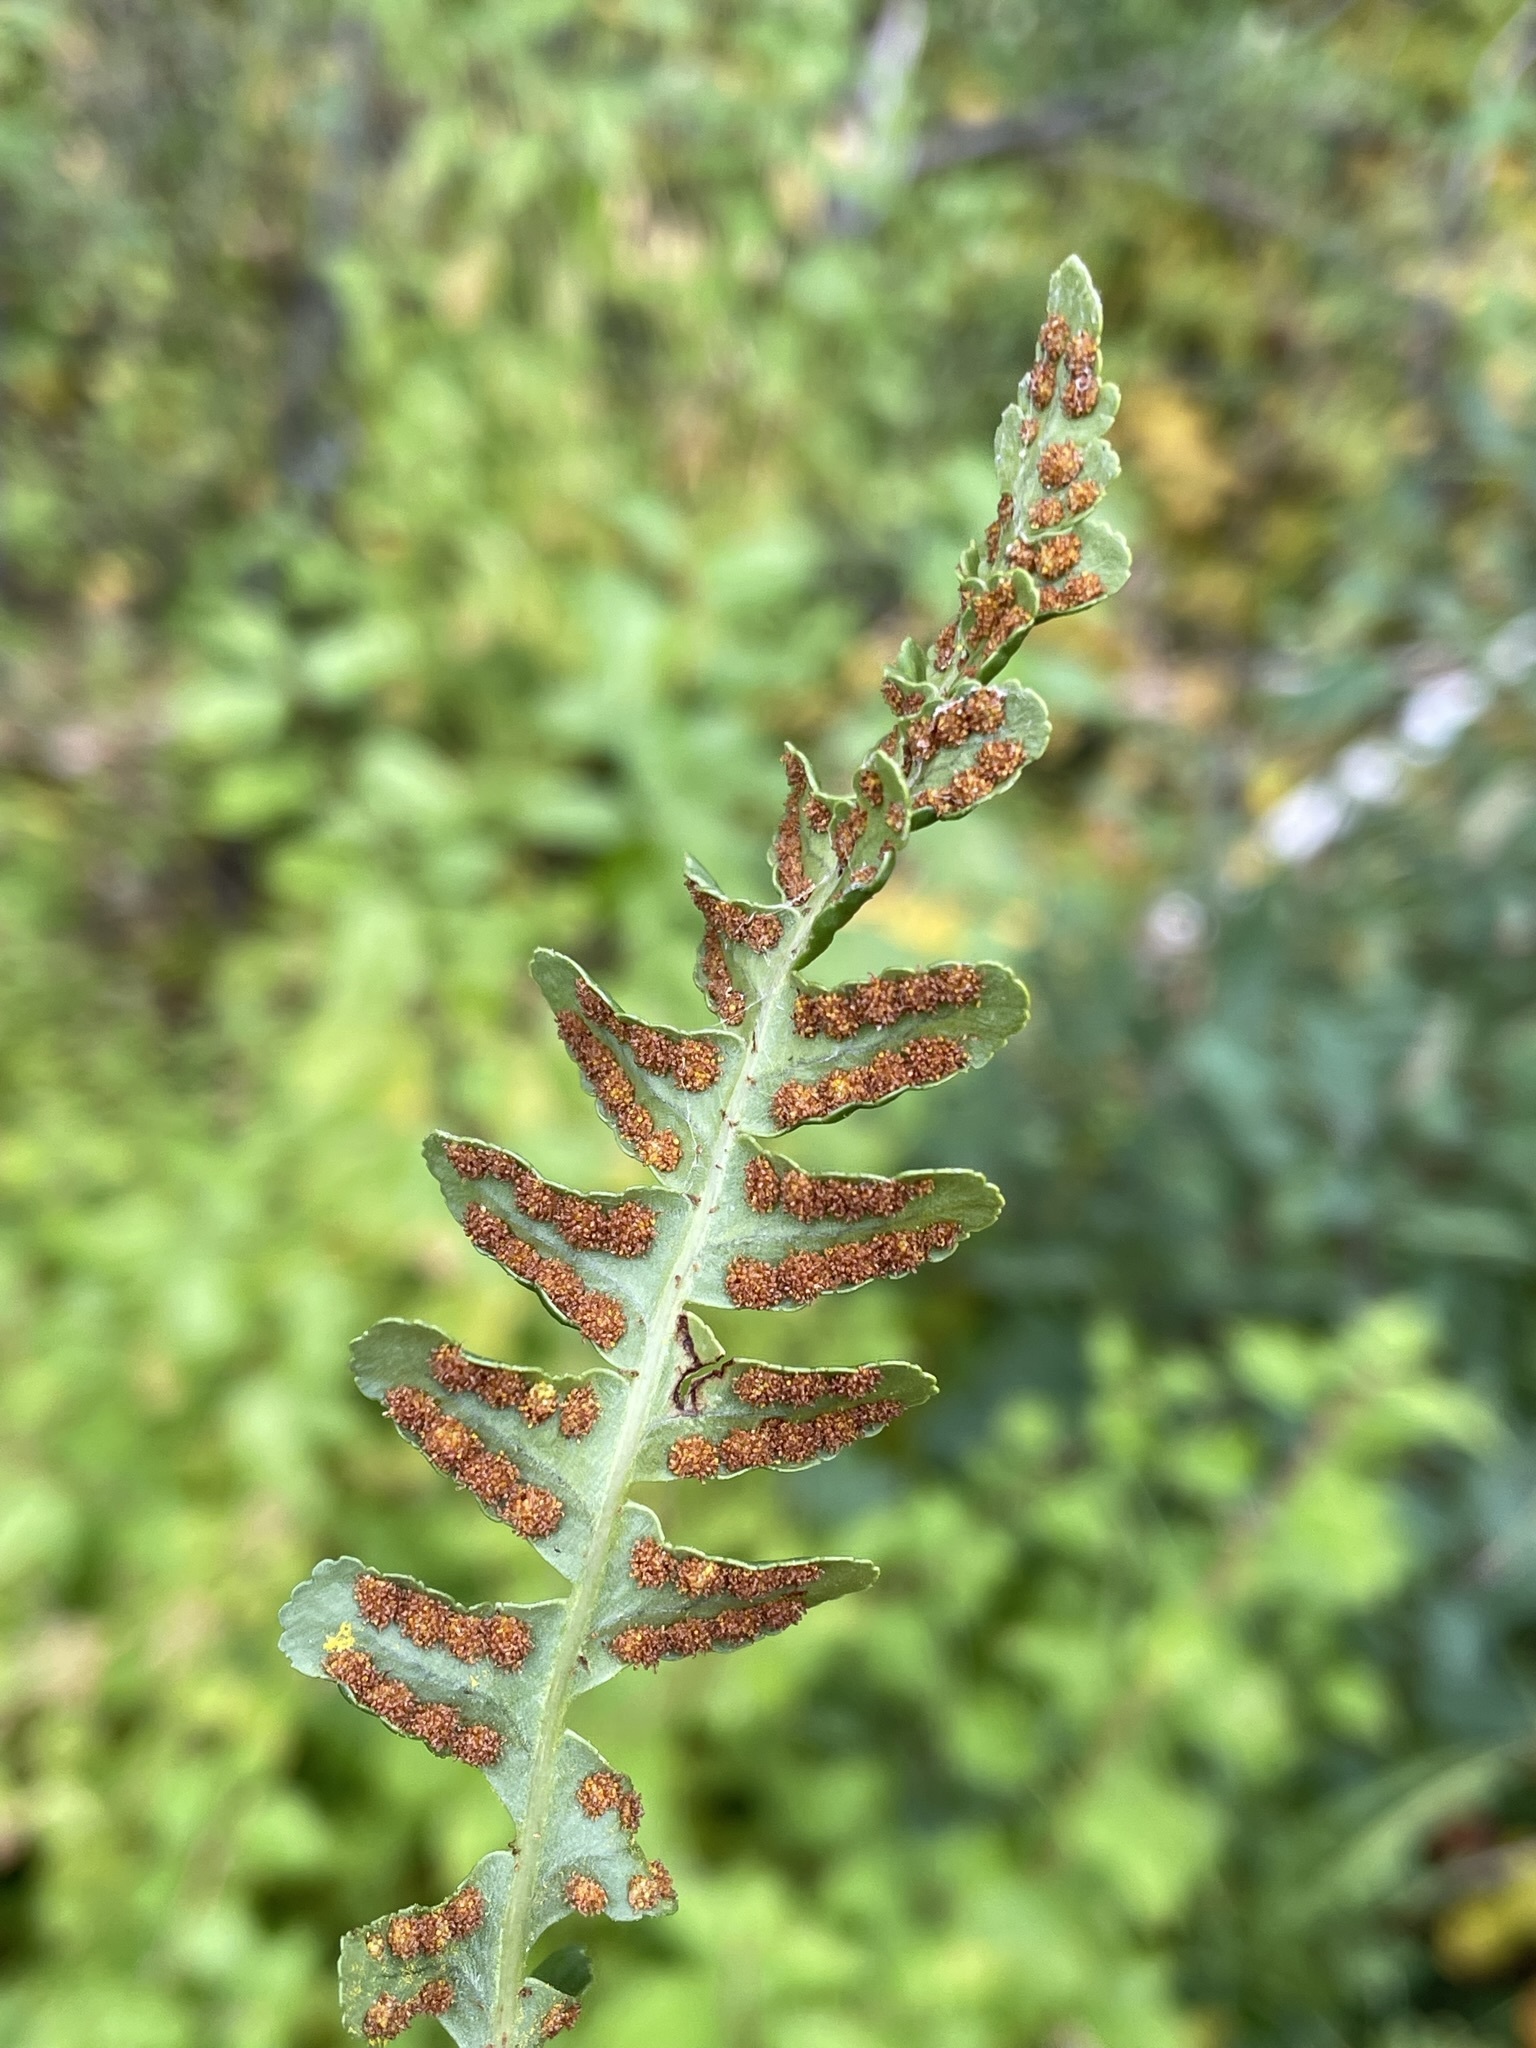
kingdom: Plantae
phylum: Tracheophyta
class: Polypodiopsida
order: Polypodiales
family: Polypodiaceae
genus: Polypodium
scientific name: Polypodium saximontanum
